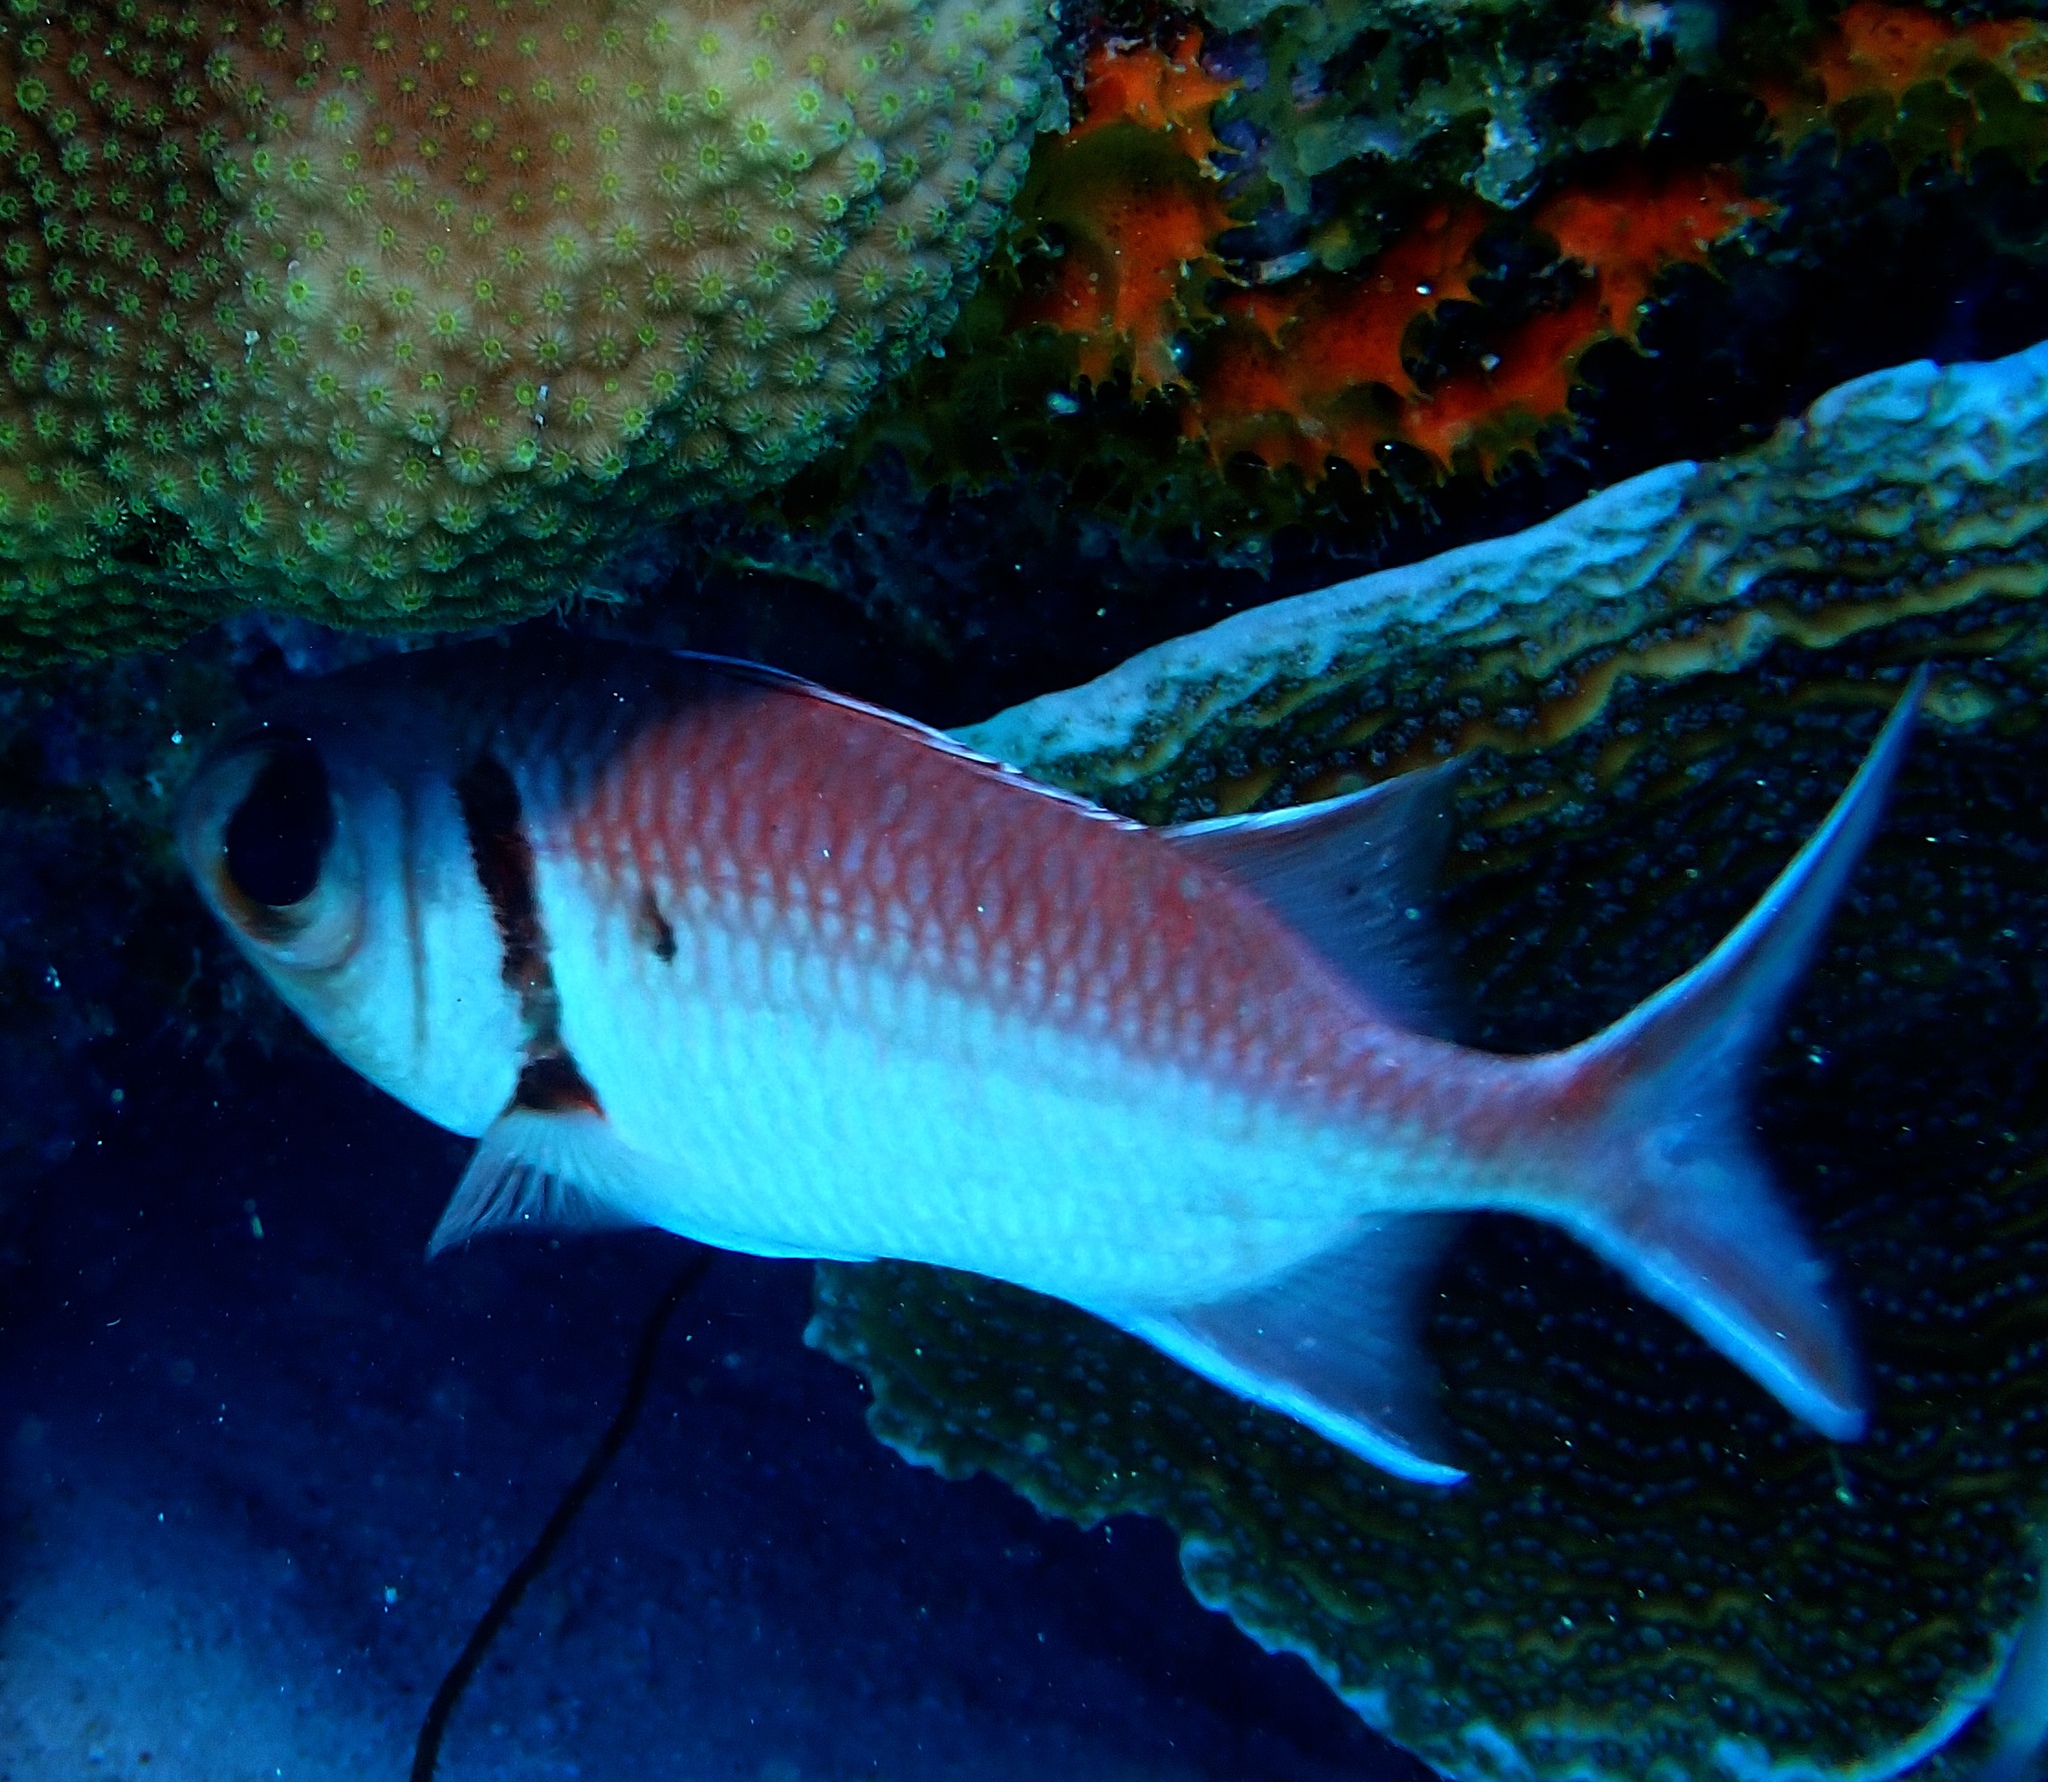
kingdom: Animalia
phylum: Chordata
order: Beryciformes
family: Holocentridae
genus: Myripristis
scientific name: Myripristis jacobus
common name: Blackbar soldierfish
